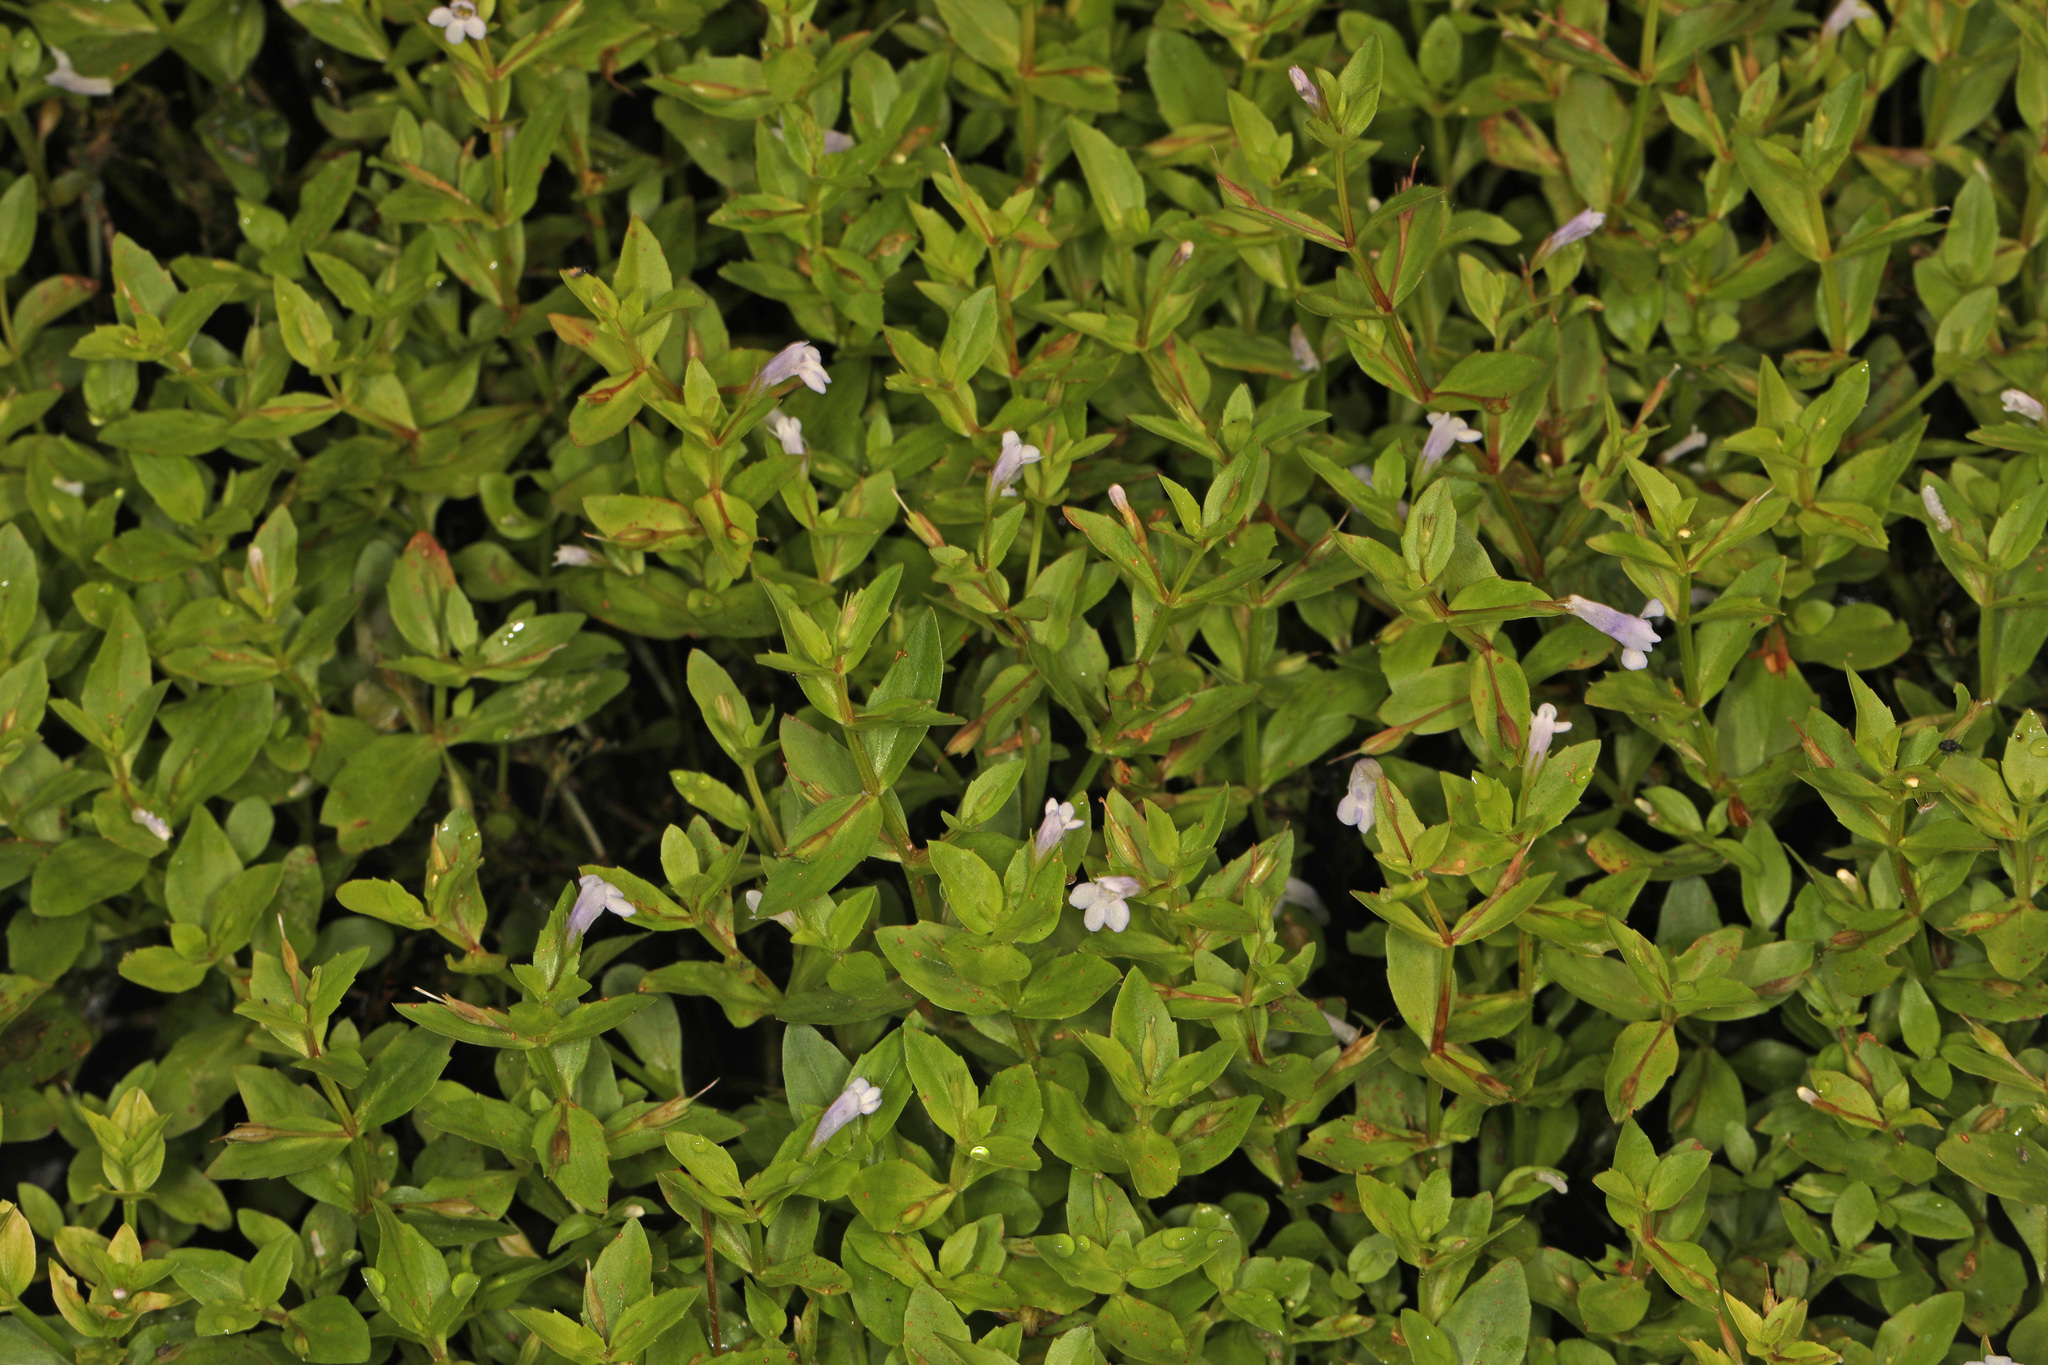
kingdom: Plantae
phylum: Tracheophyta
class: Magnoliopsida
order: Lamiales
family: Linderniaceae
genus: Lindernia
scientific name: Lindernia dubia
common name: Annual false pimpernel
